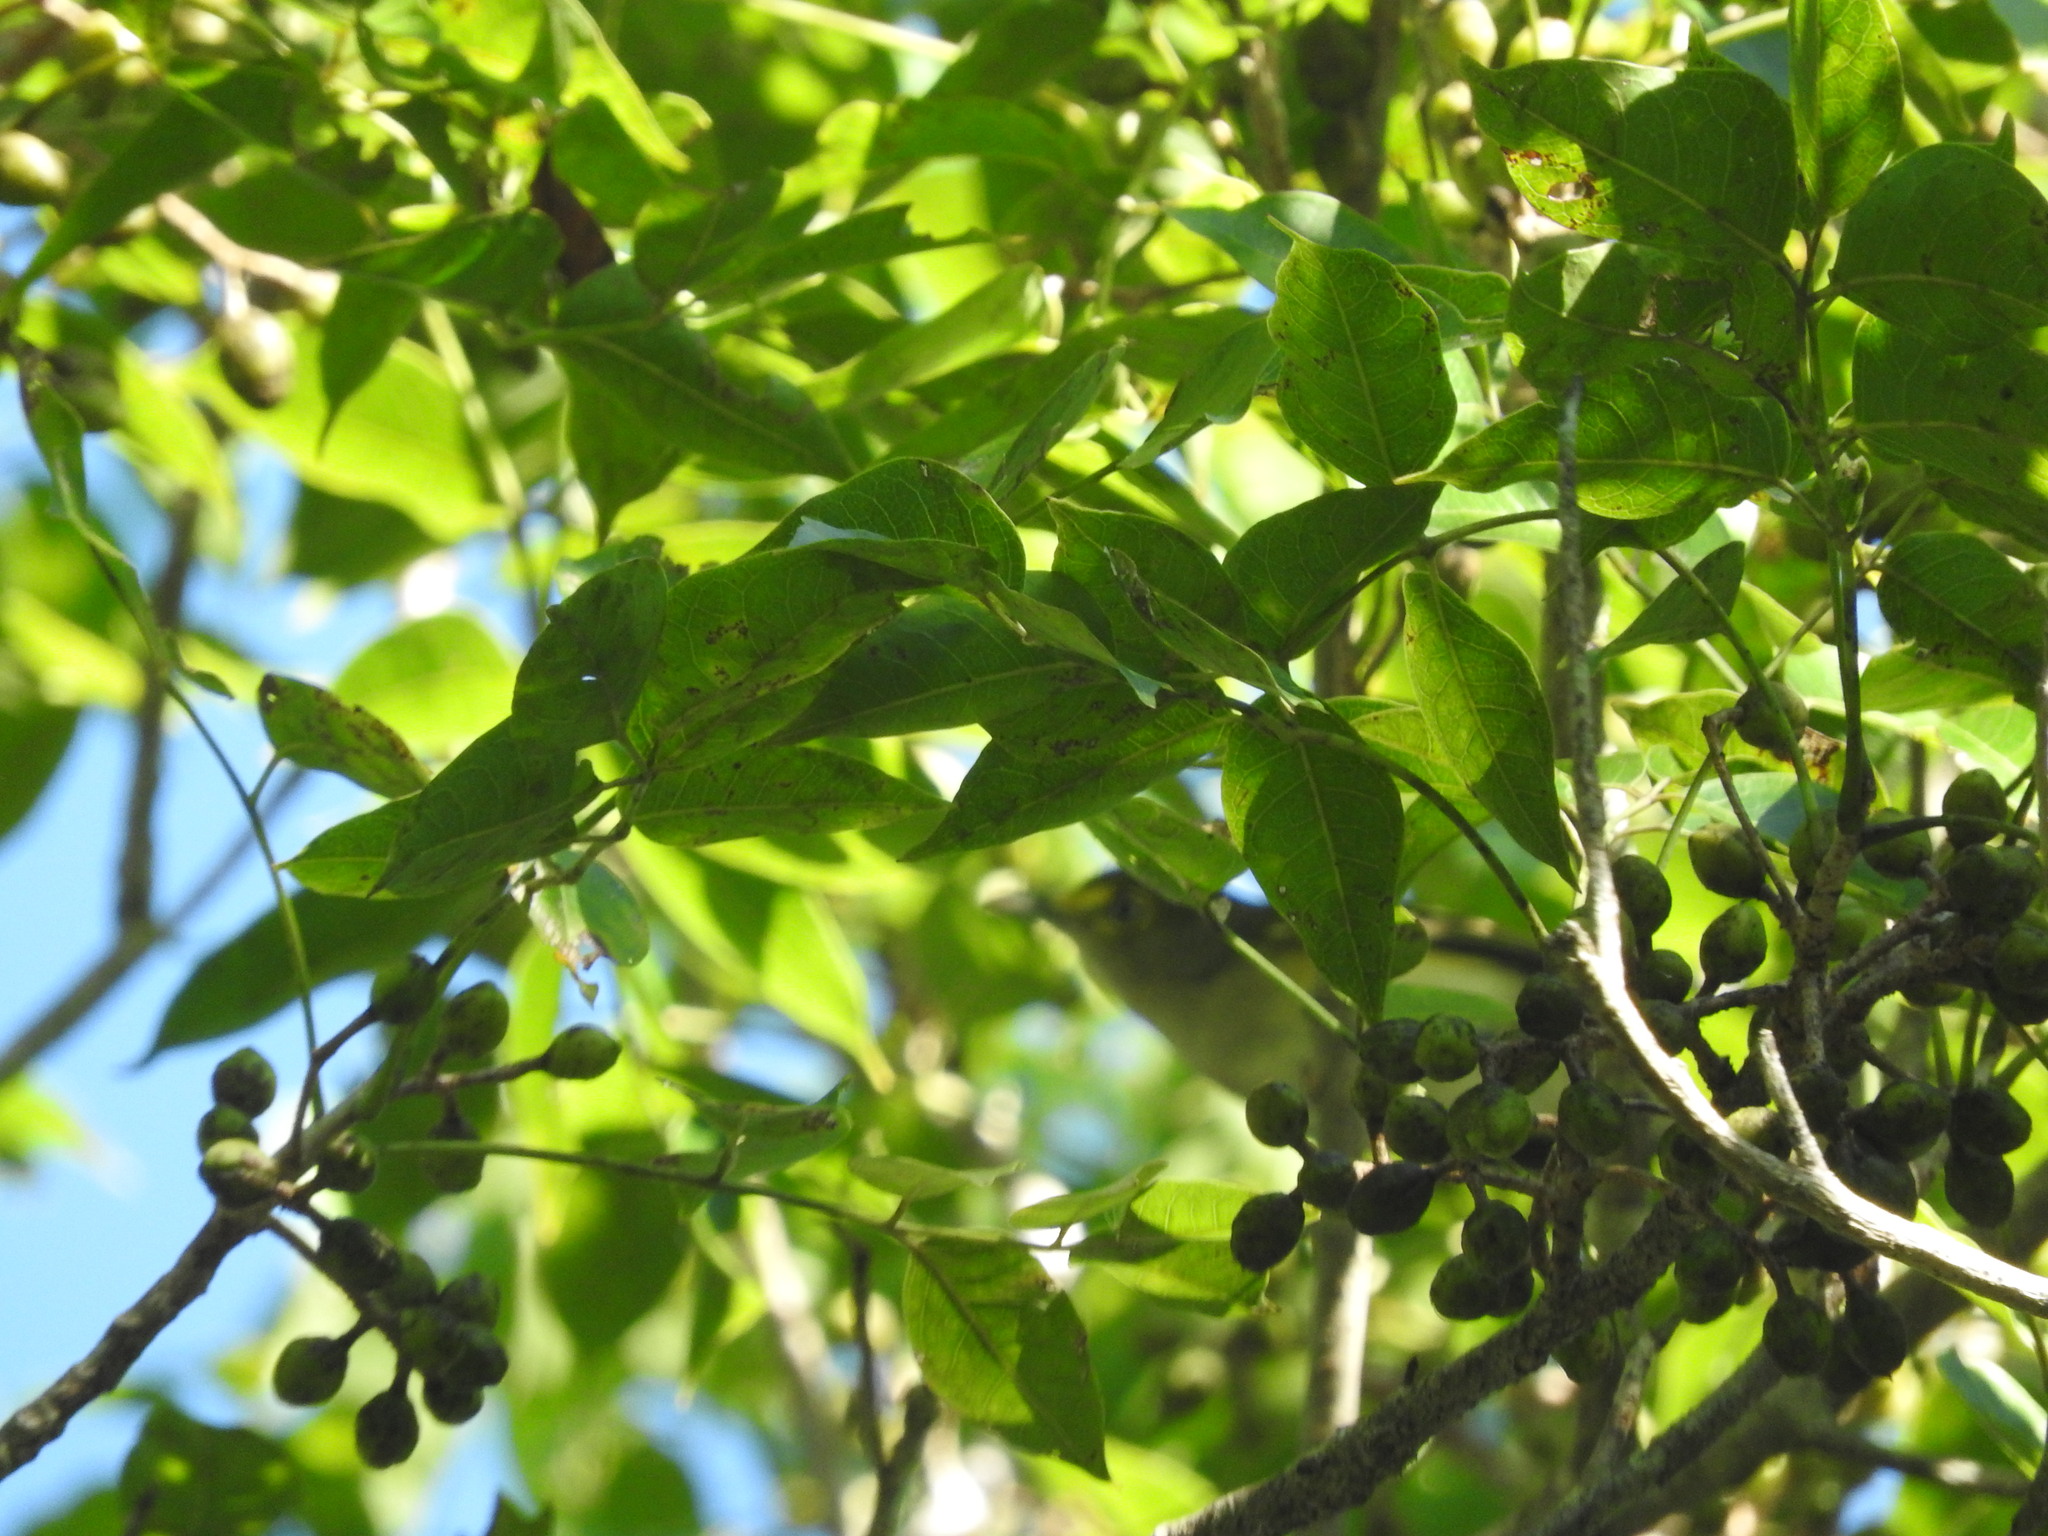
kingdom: Animalia
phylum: Chordata
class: Aves
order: Passeriformes
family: Vireonidae
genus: Vireo
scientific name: Vireo griseus
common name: White-eyed vireo
